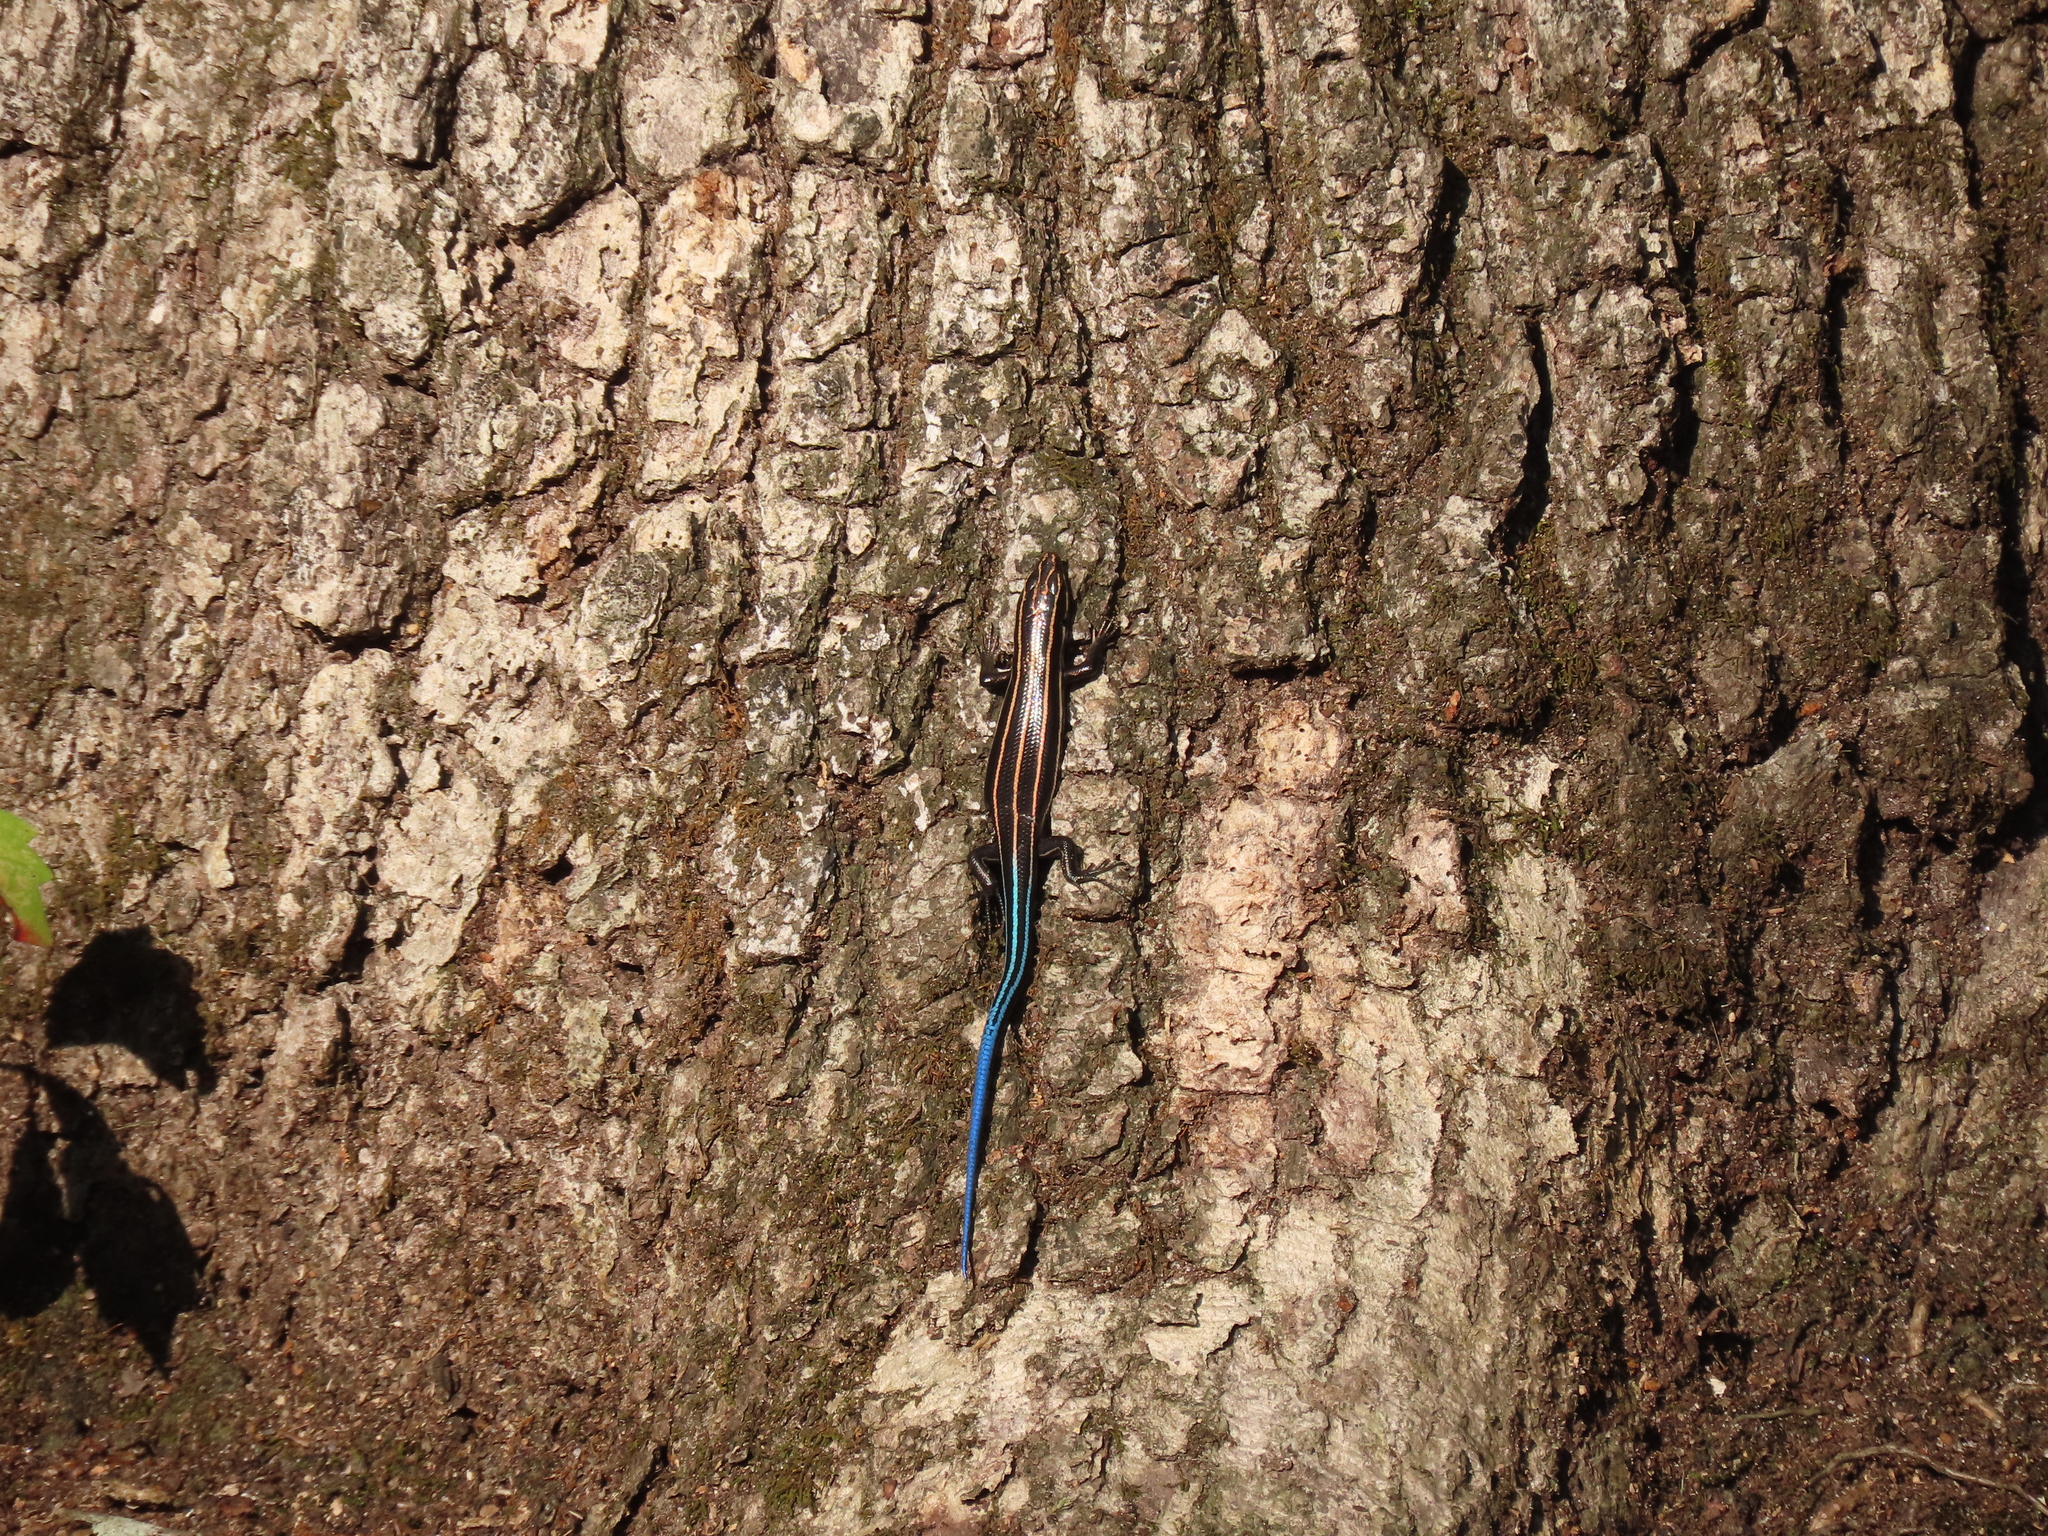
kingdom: Animalia
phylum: Chordata
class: Squamata
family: Scincidae
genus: Plestiodon
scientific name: Plestiodon fasciatus
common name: Five-lined skink
